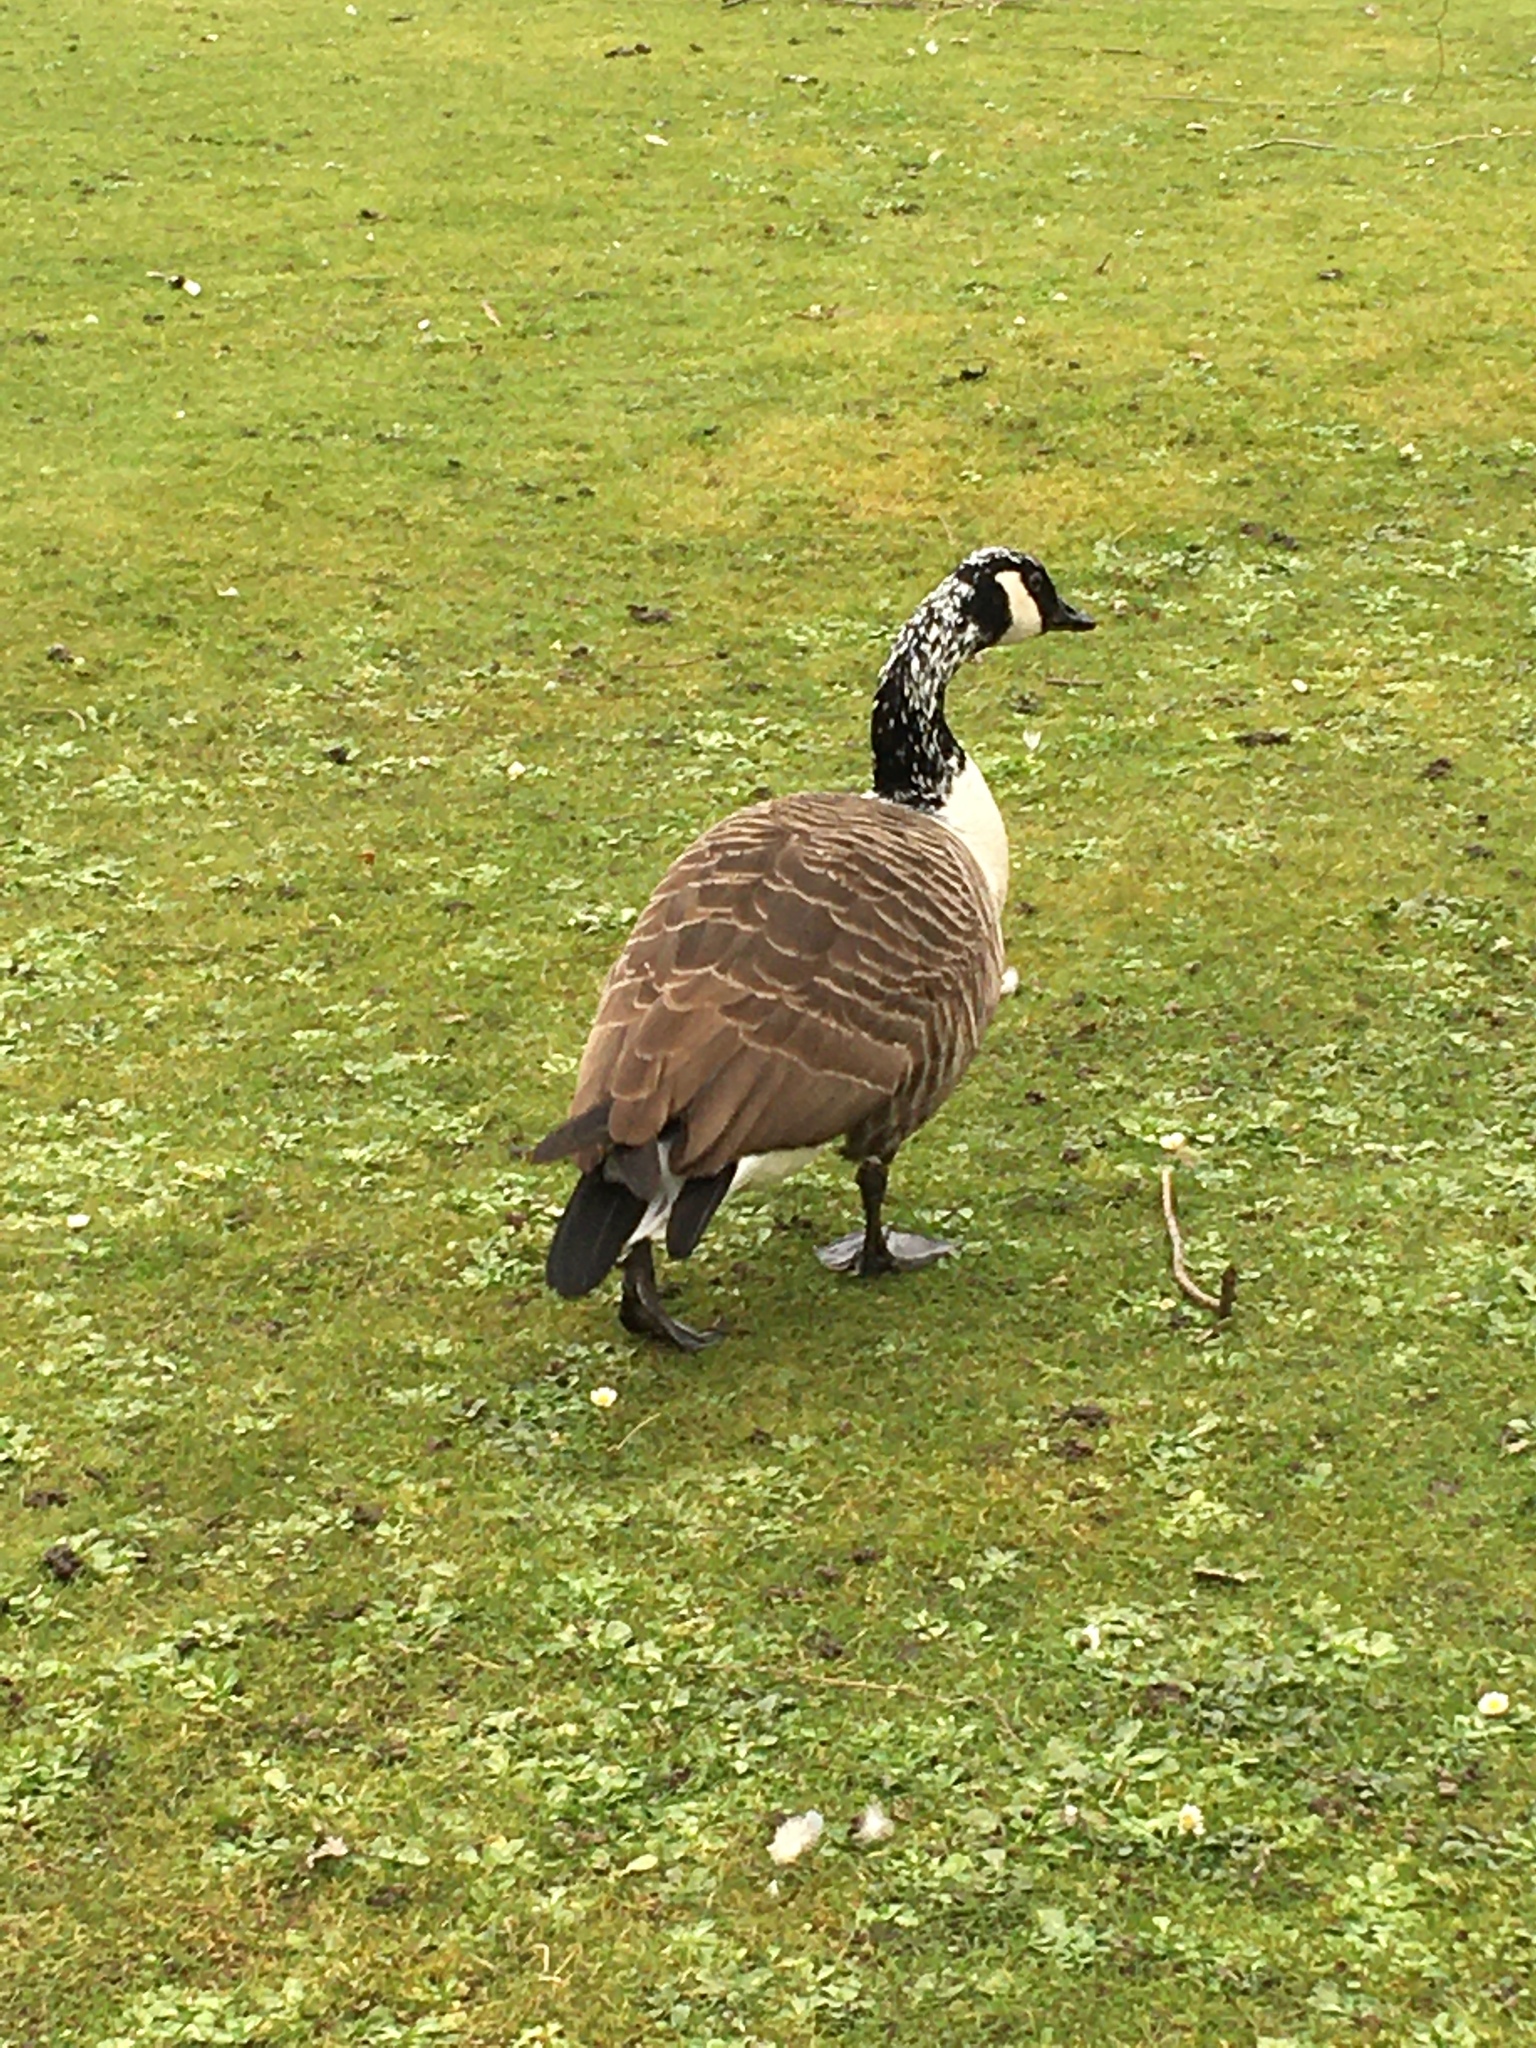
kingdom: Animalia
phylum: Chordata
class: Aves
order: Anseriformes
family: Anatidae
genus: Branta
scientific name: Branta canadensis
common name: Canada goose
